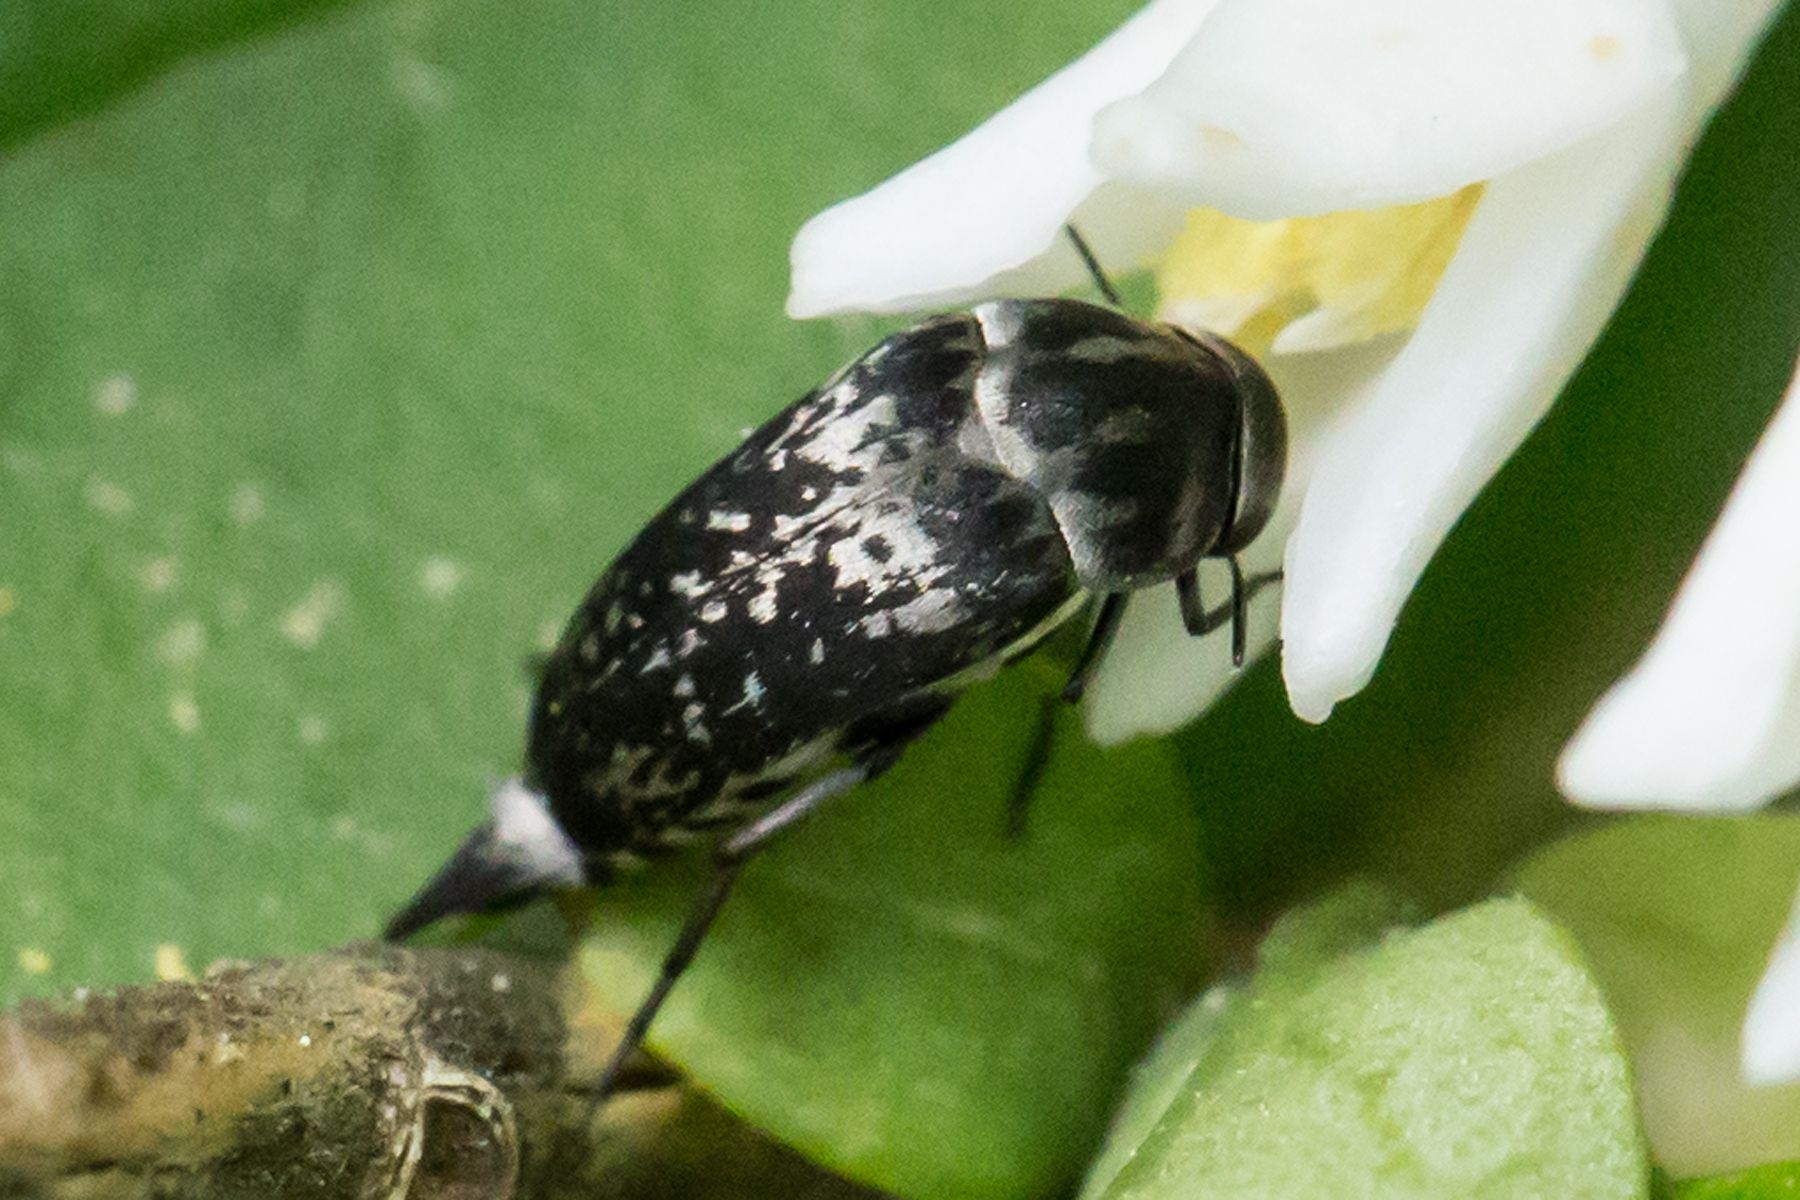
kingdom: Animalia
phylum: Arthropoda
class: Insecta
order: Coleoptera
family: Mordellidae
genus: Mordella
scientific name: Mordella marginata
